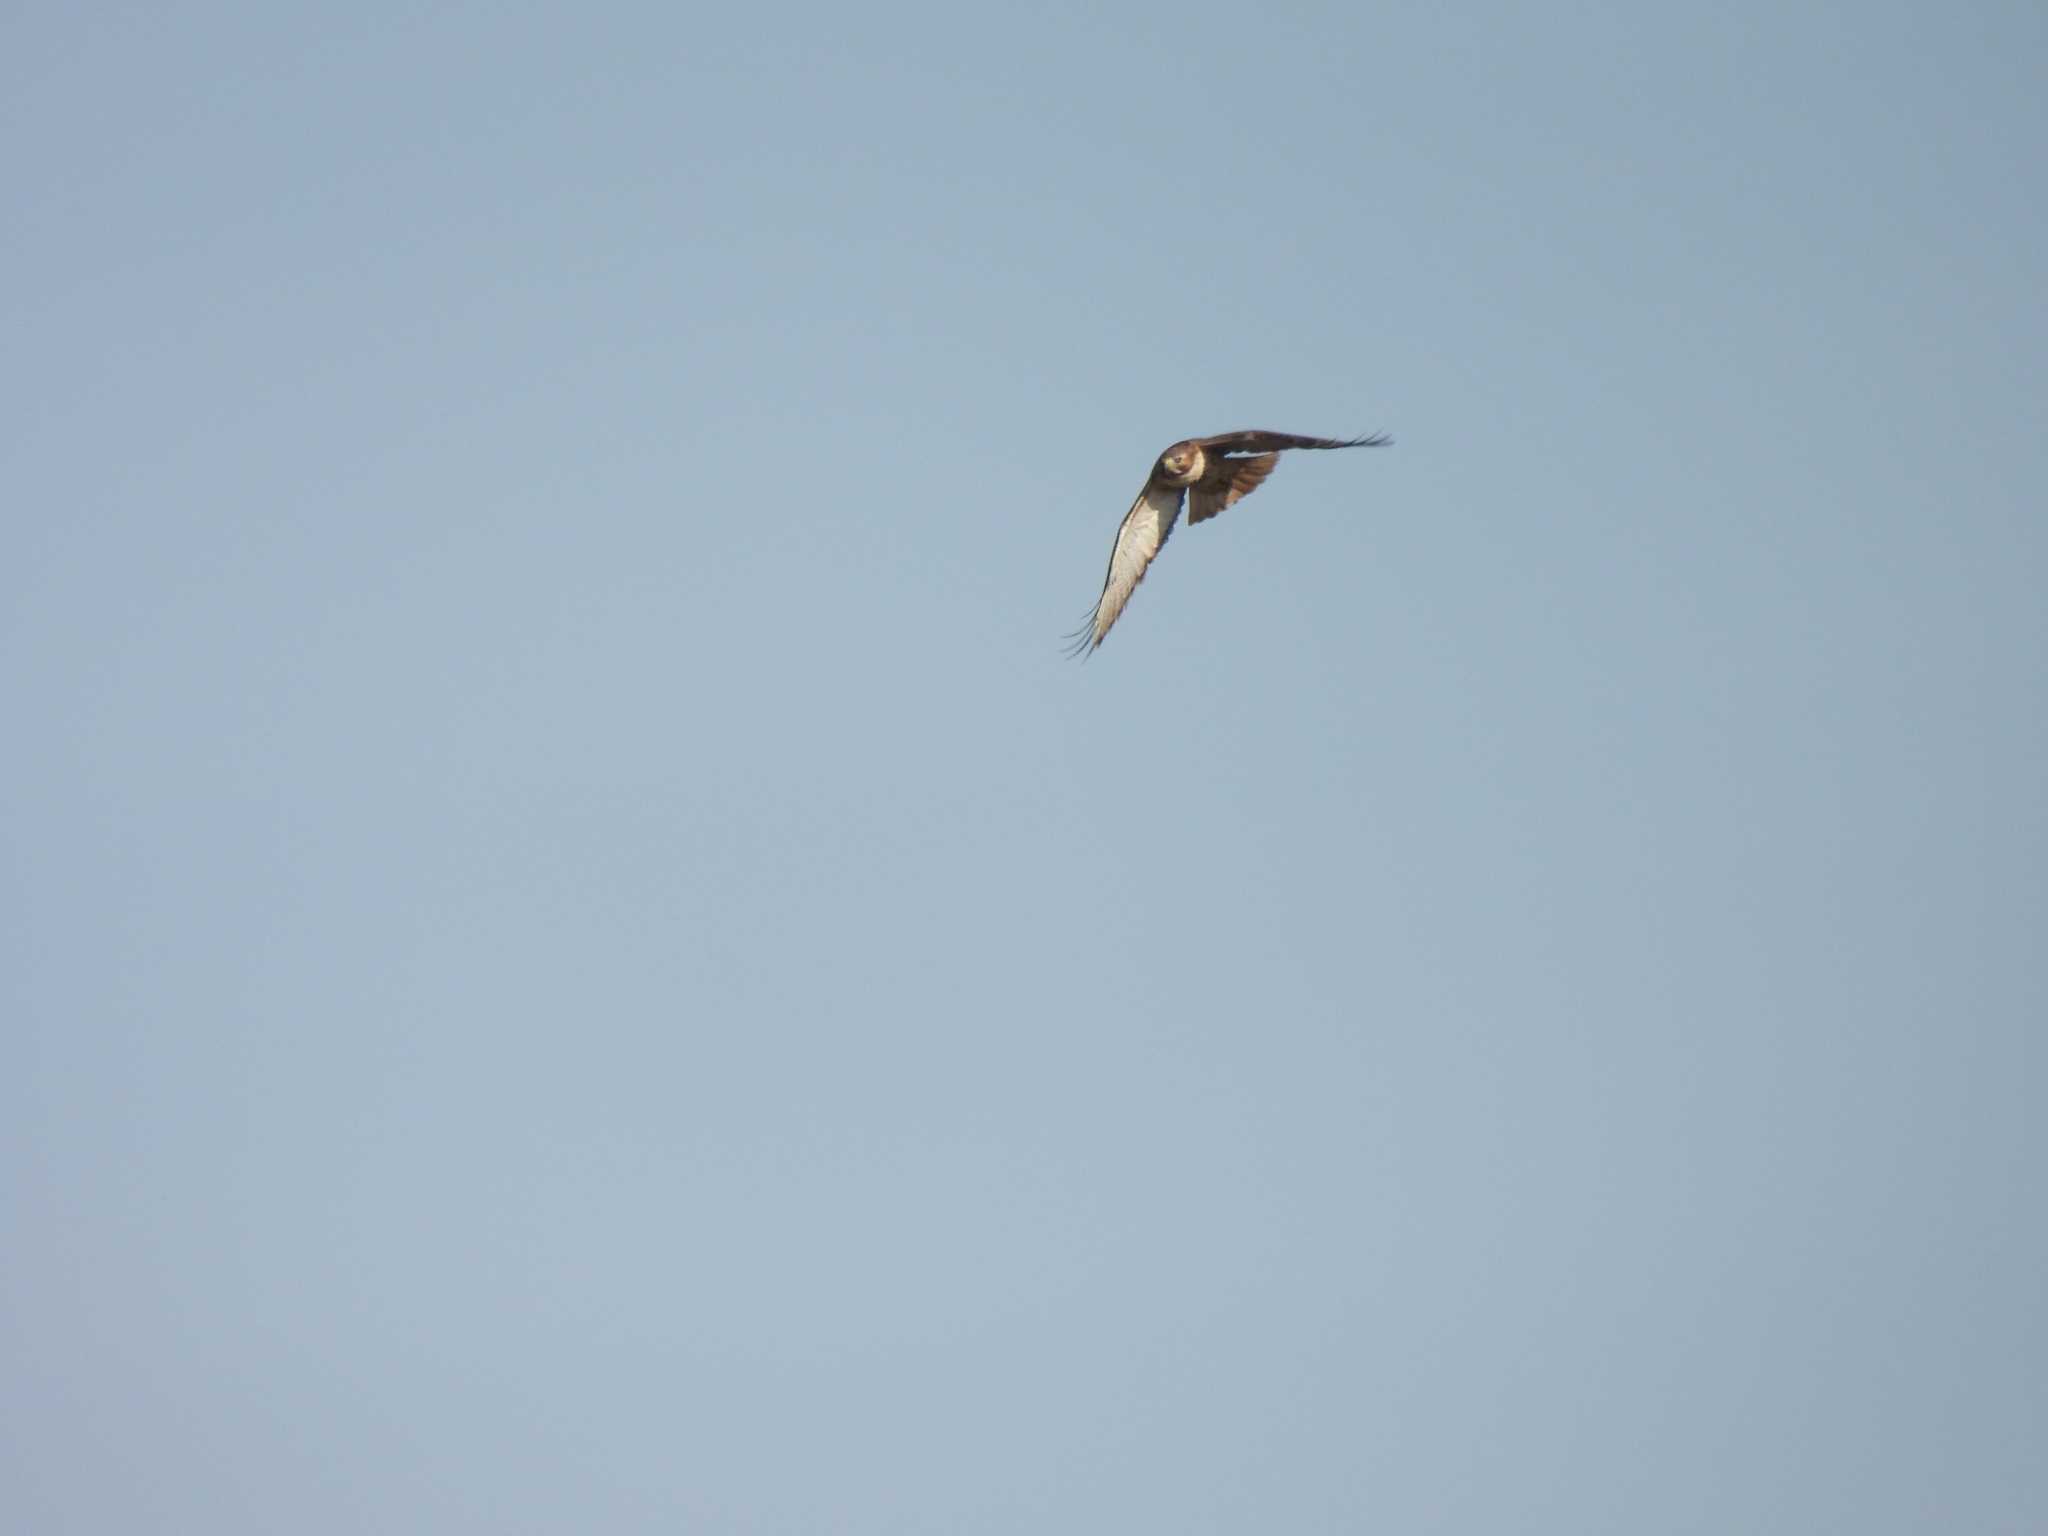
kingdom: Animalia
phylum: Chordata
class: Aves
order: Accipitriformes
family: Accipitridae
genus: Buteo
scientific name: Buteo jamaicensis
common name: Red-tailed hawk
